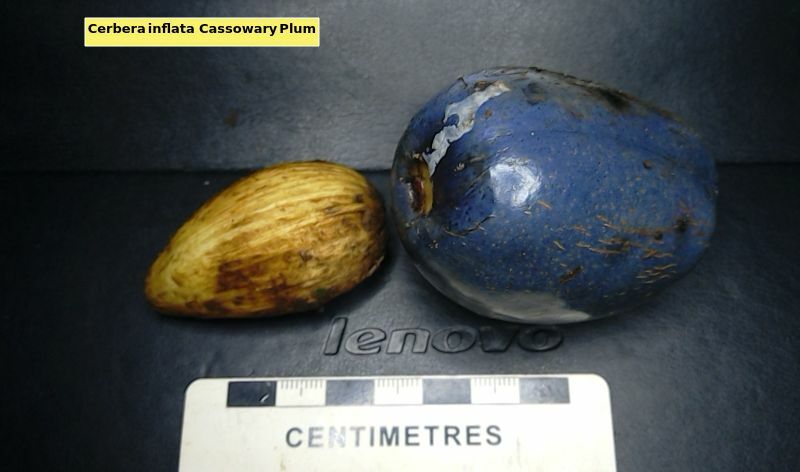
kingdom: Plantae
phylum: Tracheophyta
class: Magnoliopsida
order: Gentianales
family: Apocynaceae
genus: Cerbera
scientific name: Cerbera inflata
